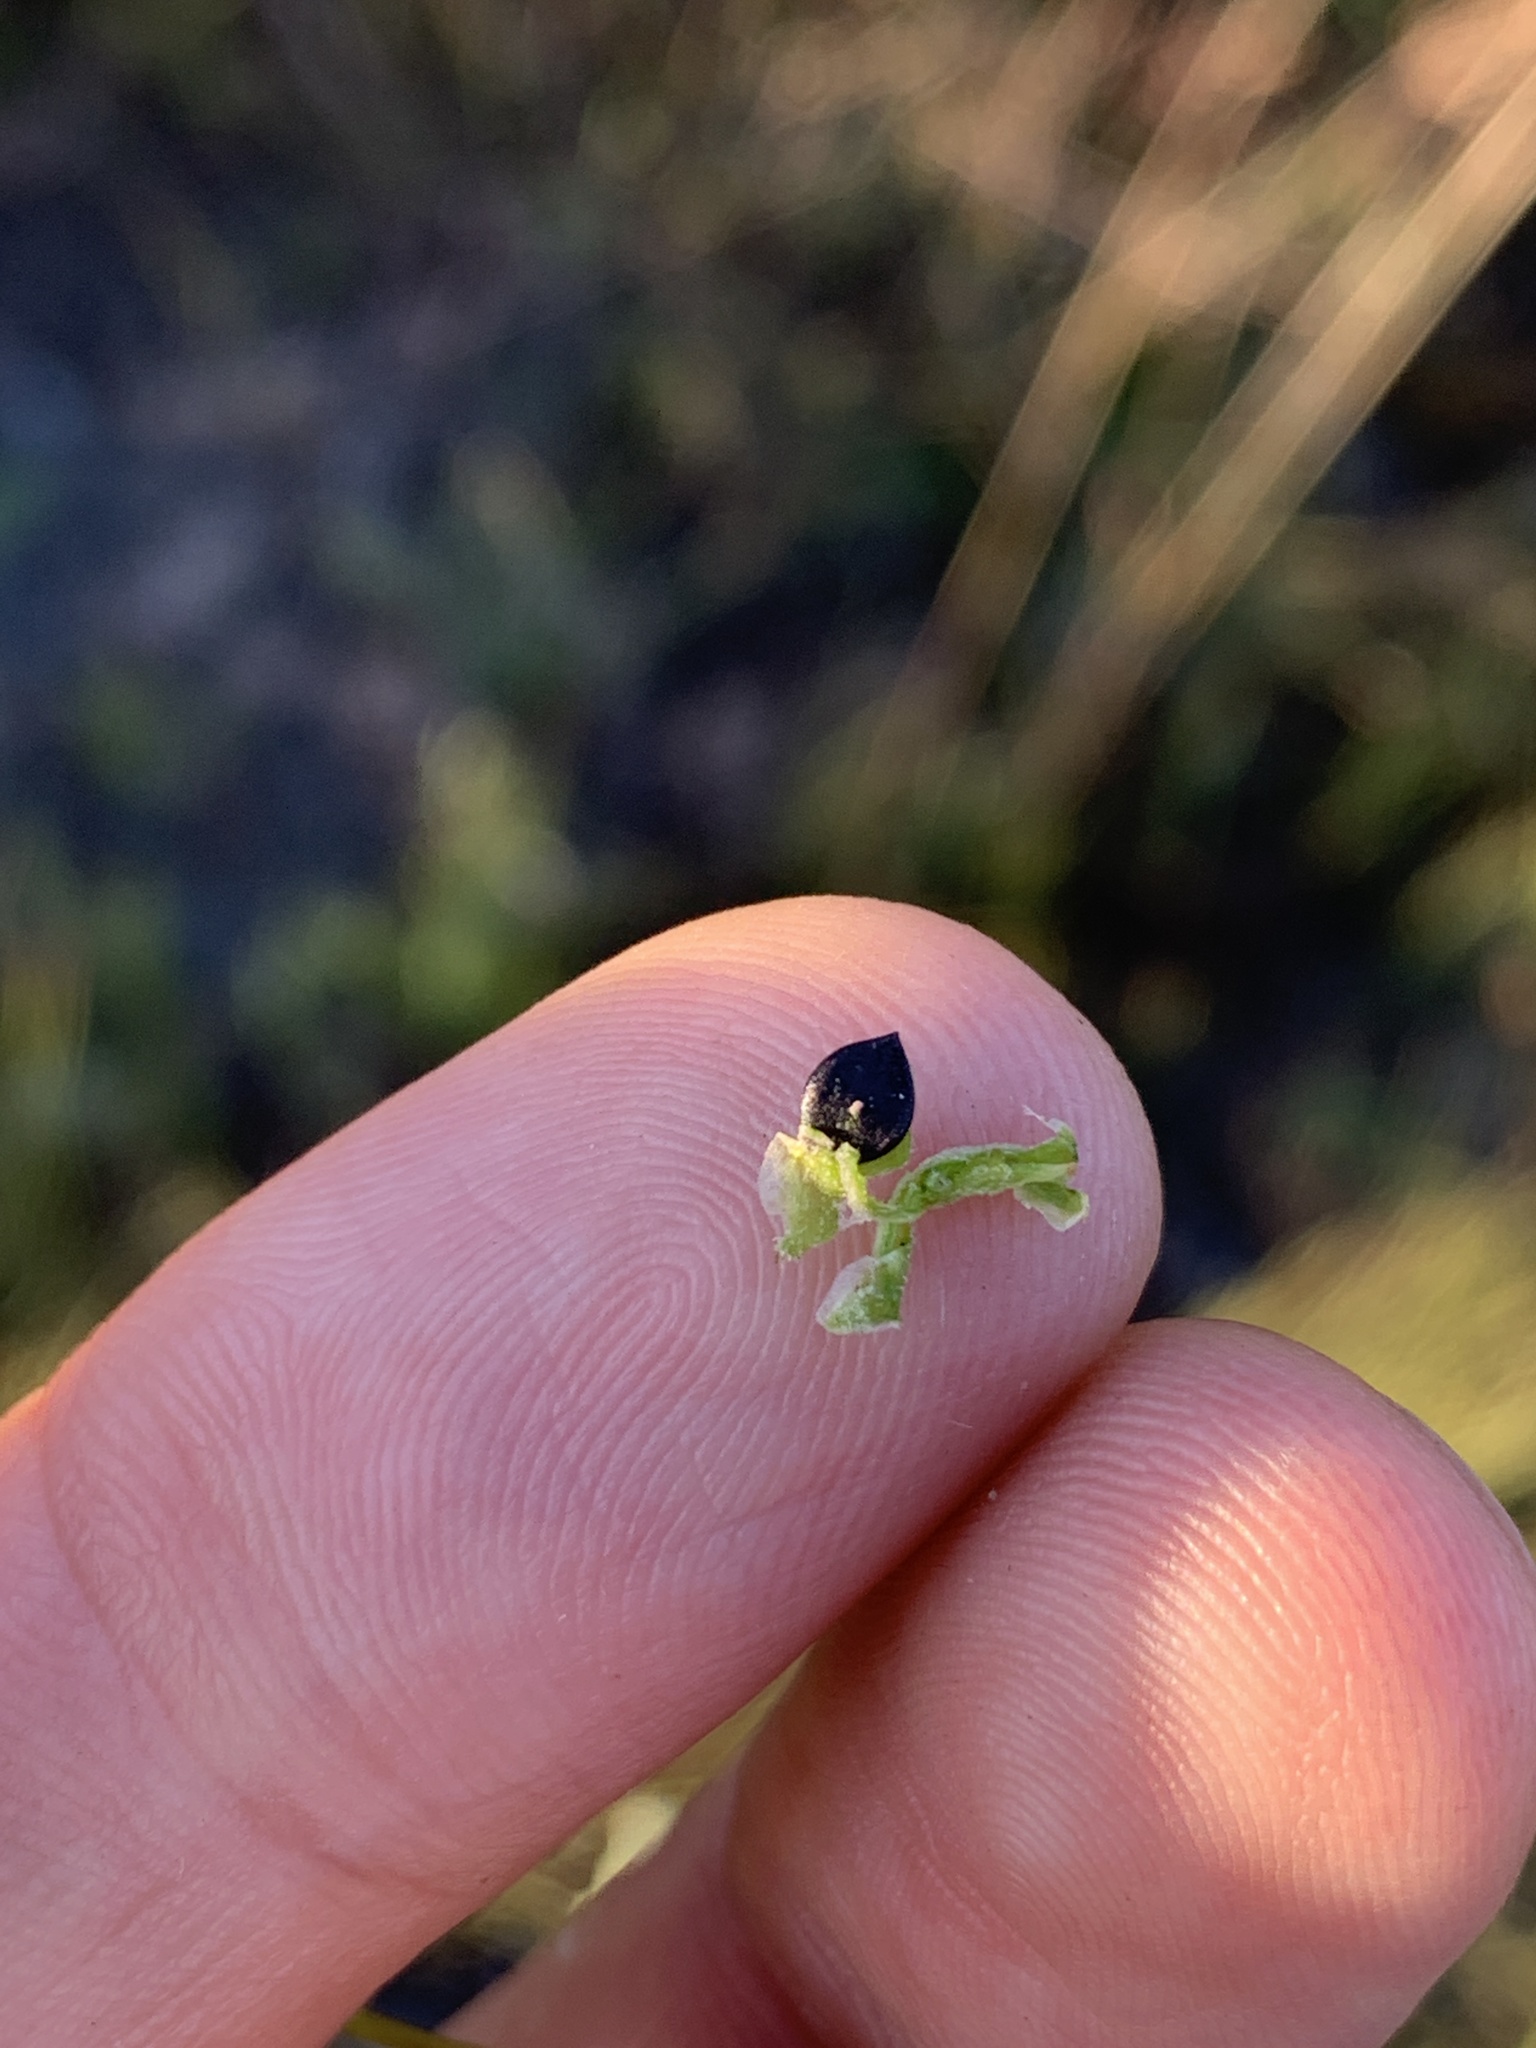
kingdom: Plantae
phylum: Tracheophyta
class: Magnoliopsida
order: Caryophyllales
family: Polygonaceae
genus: Fallopia
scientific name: Fallopia convolvulus
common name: Black bindweed
